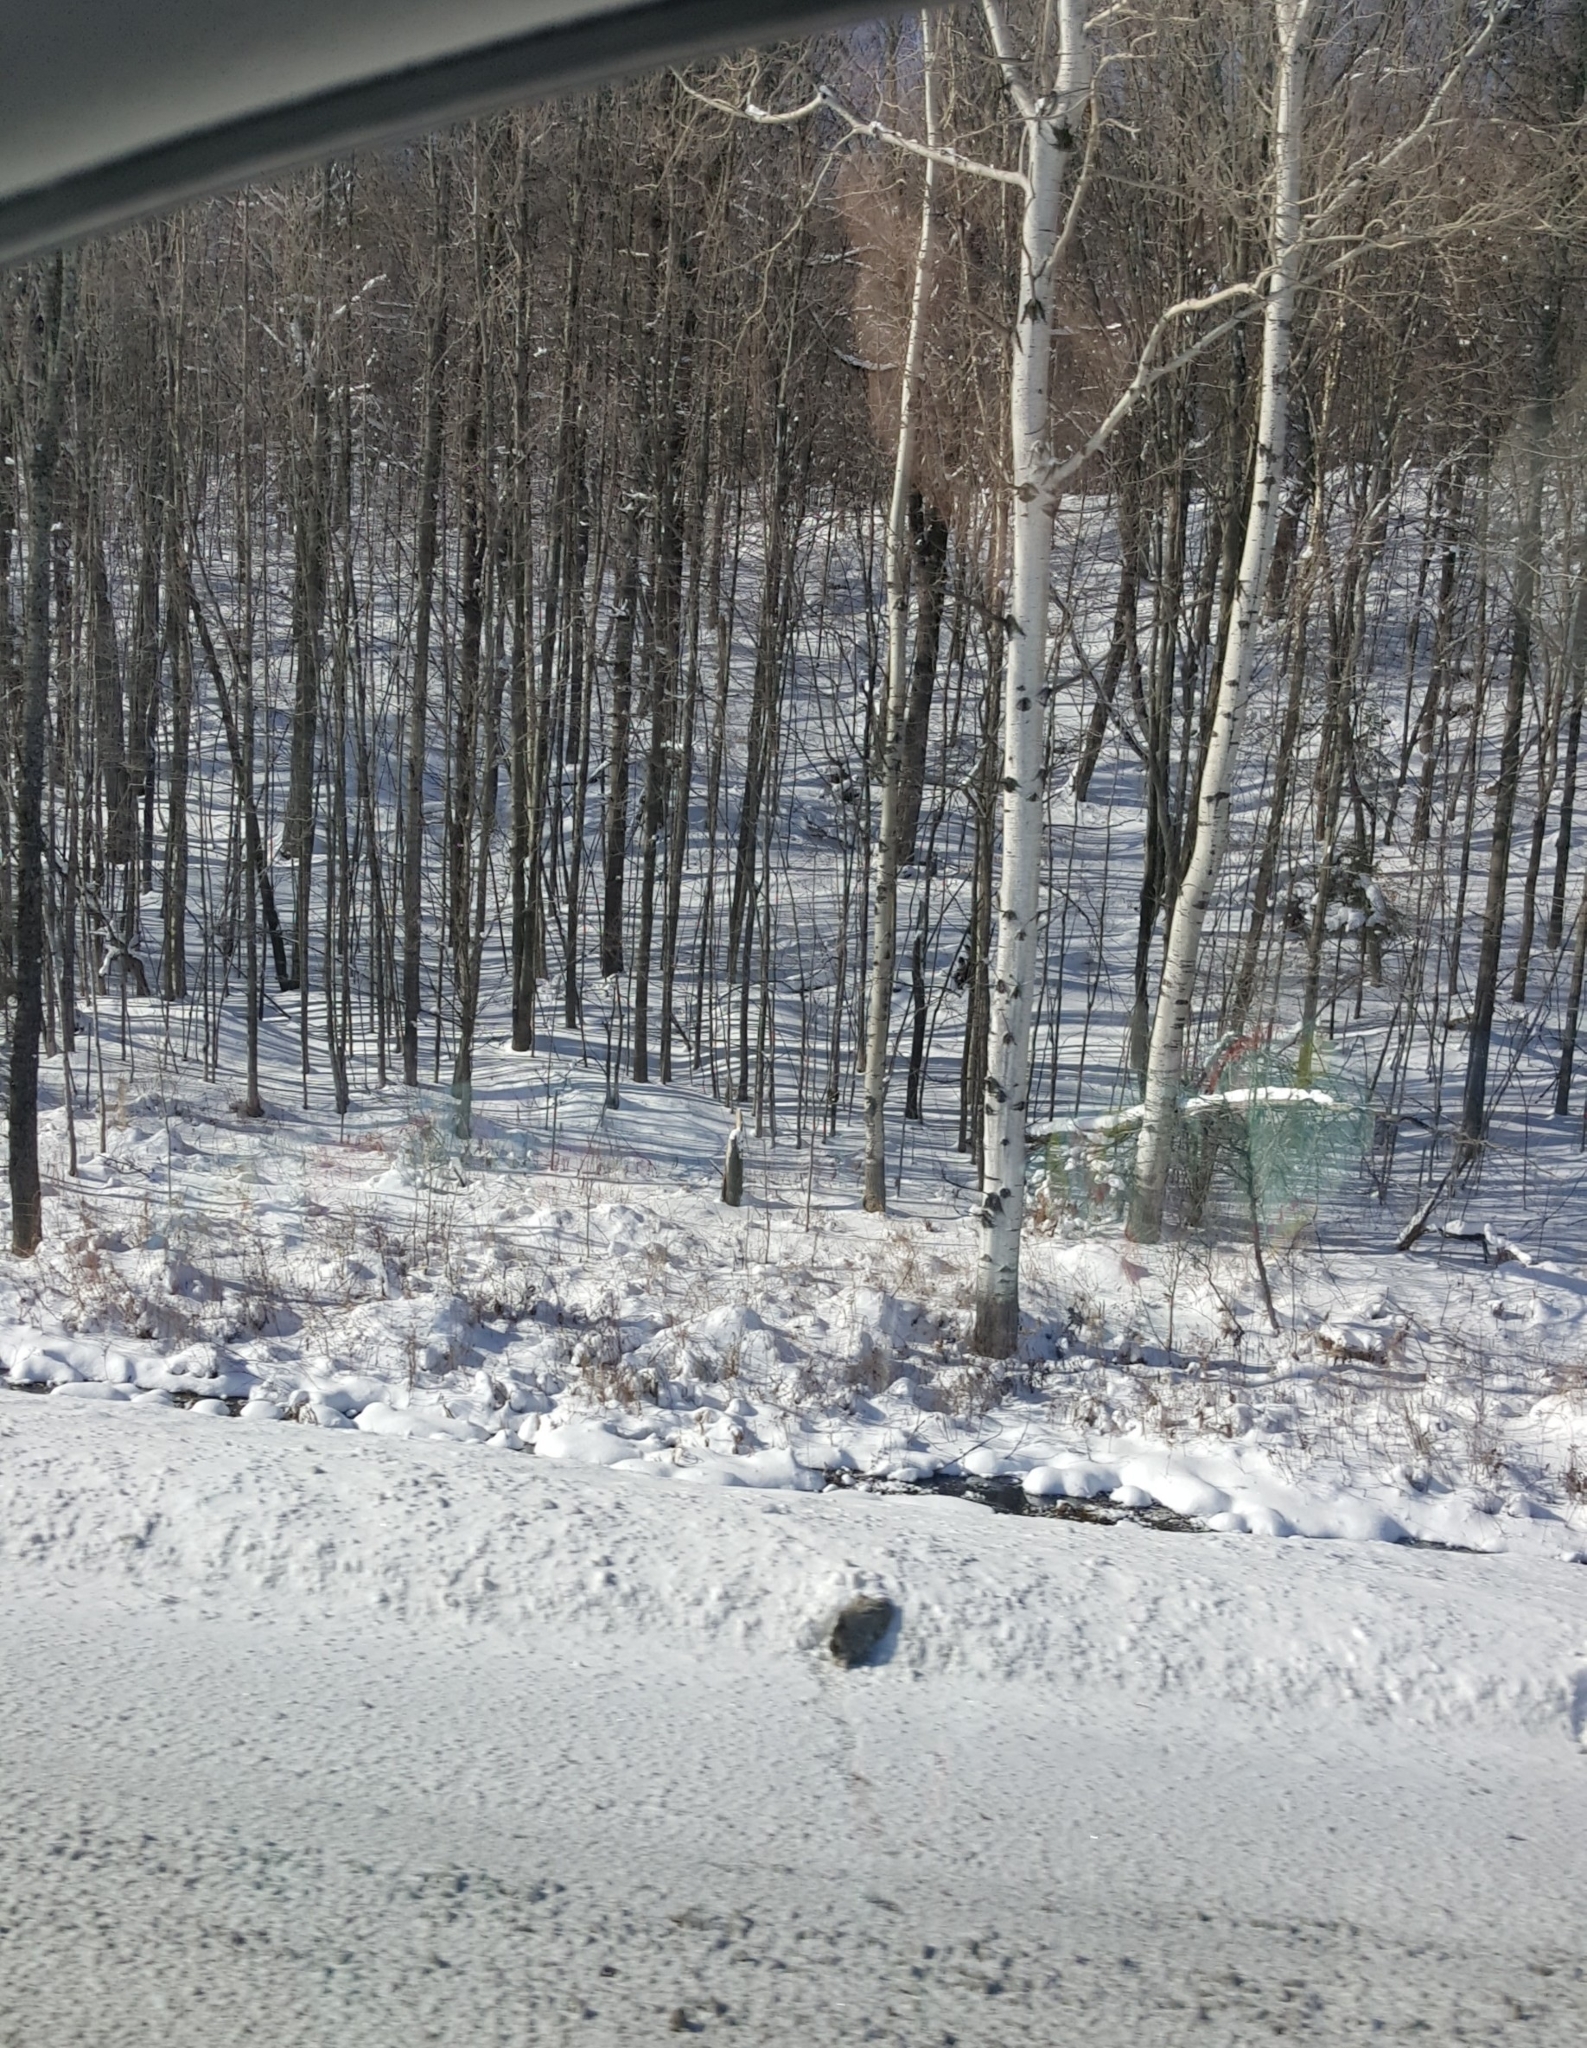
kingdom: Plantae
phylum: Tracheophyta
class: Magnoliopsida
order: Malpighiales
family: Salicaceae
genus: Populus
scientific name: Populus tremuloides
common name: Quaking aspen
